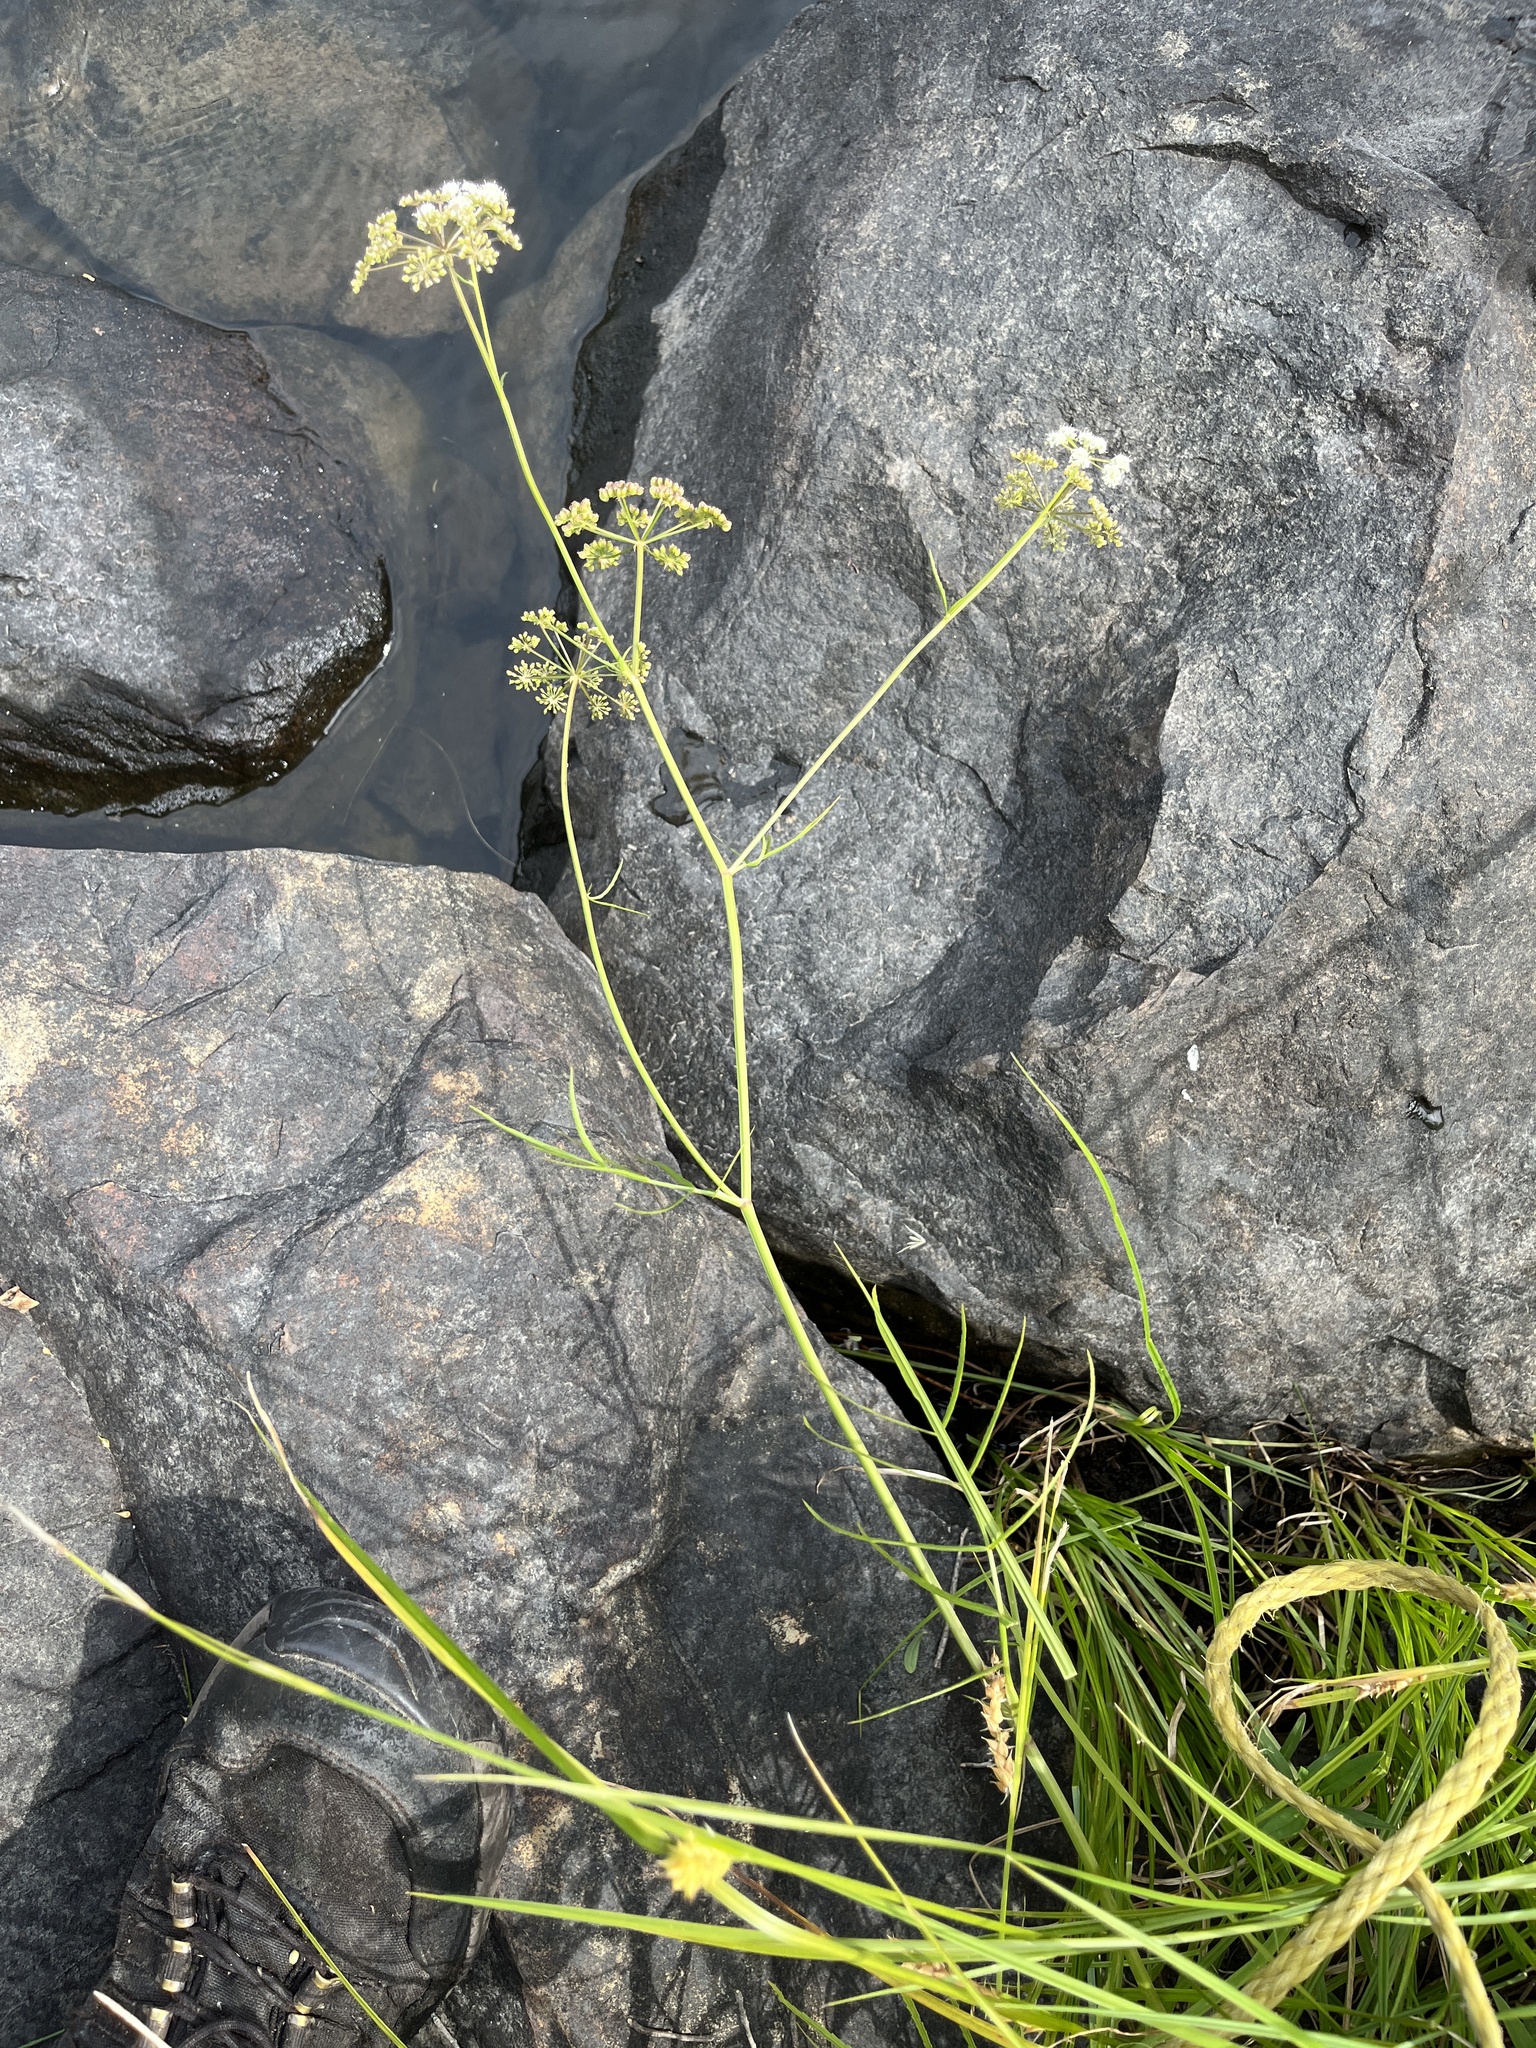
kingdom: Plantae
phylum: Tracheophyta
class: Magnoliopsida
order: Apiales
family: Apiaceae
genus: Sium
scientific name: Sium suave
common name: Hemlock water-parsnip
